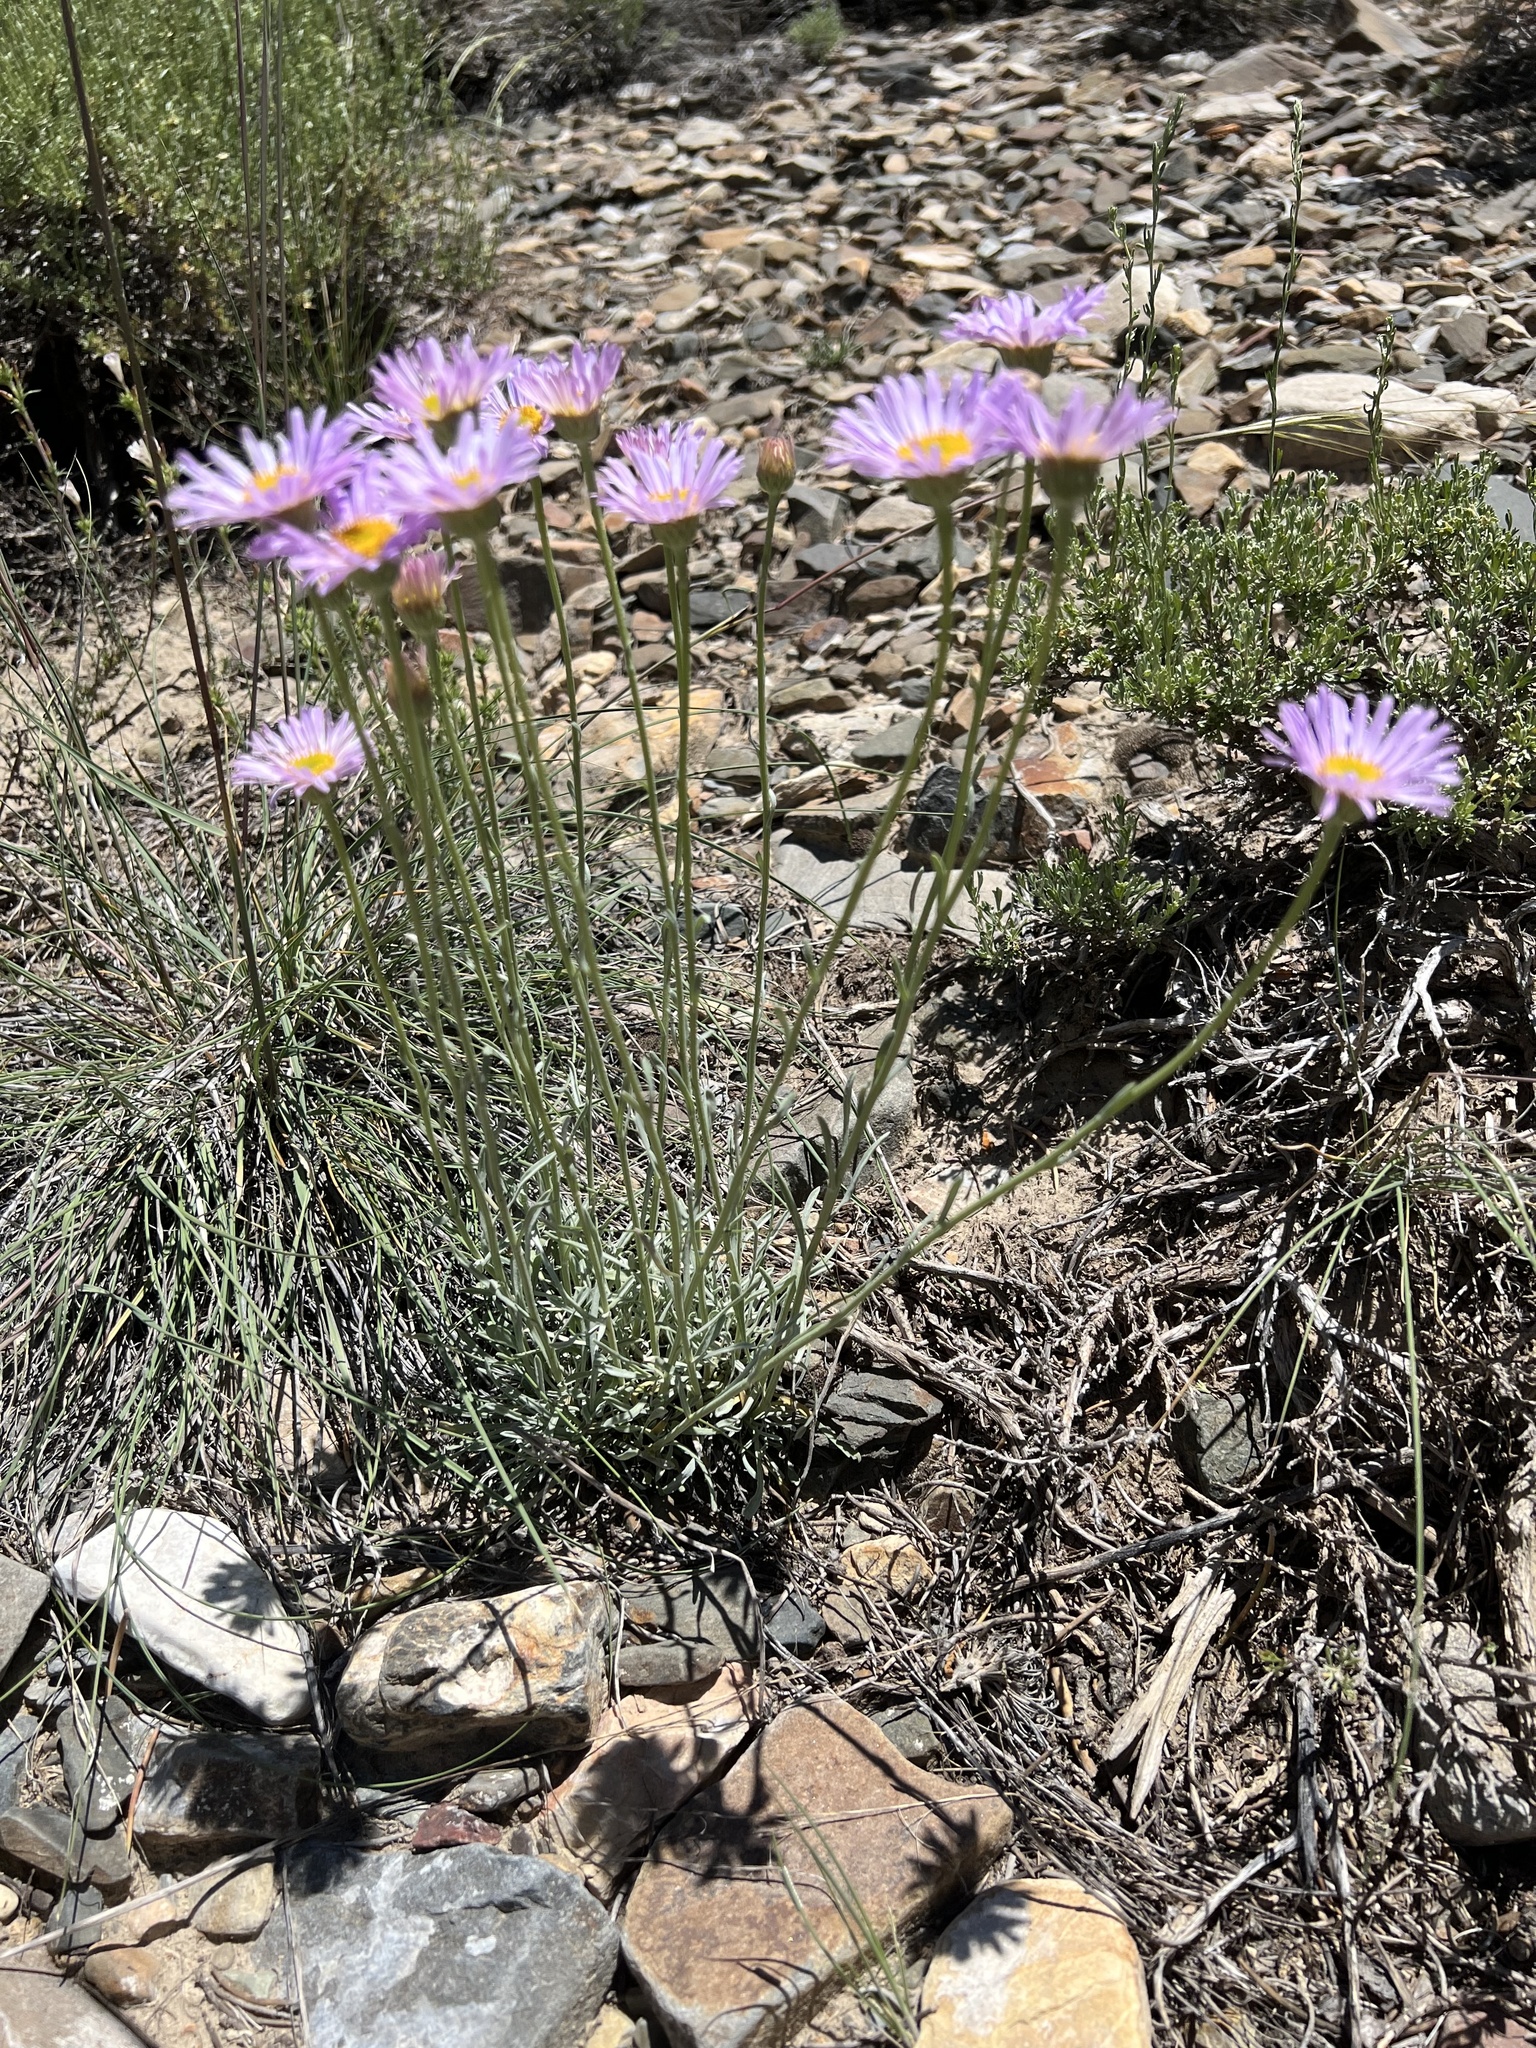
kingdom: Plantae
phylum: Tracheophyta
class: Magnoliopsida
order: Asterales
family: Asteraceae
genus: Erigeron
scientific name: Erigeron argentatus
